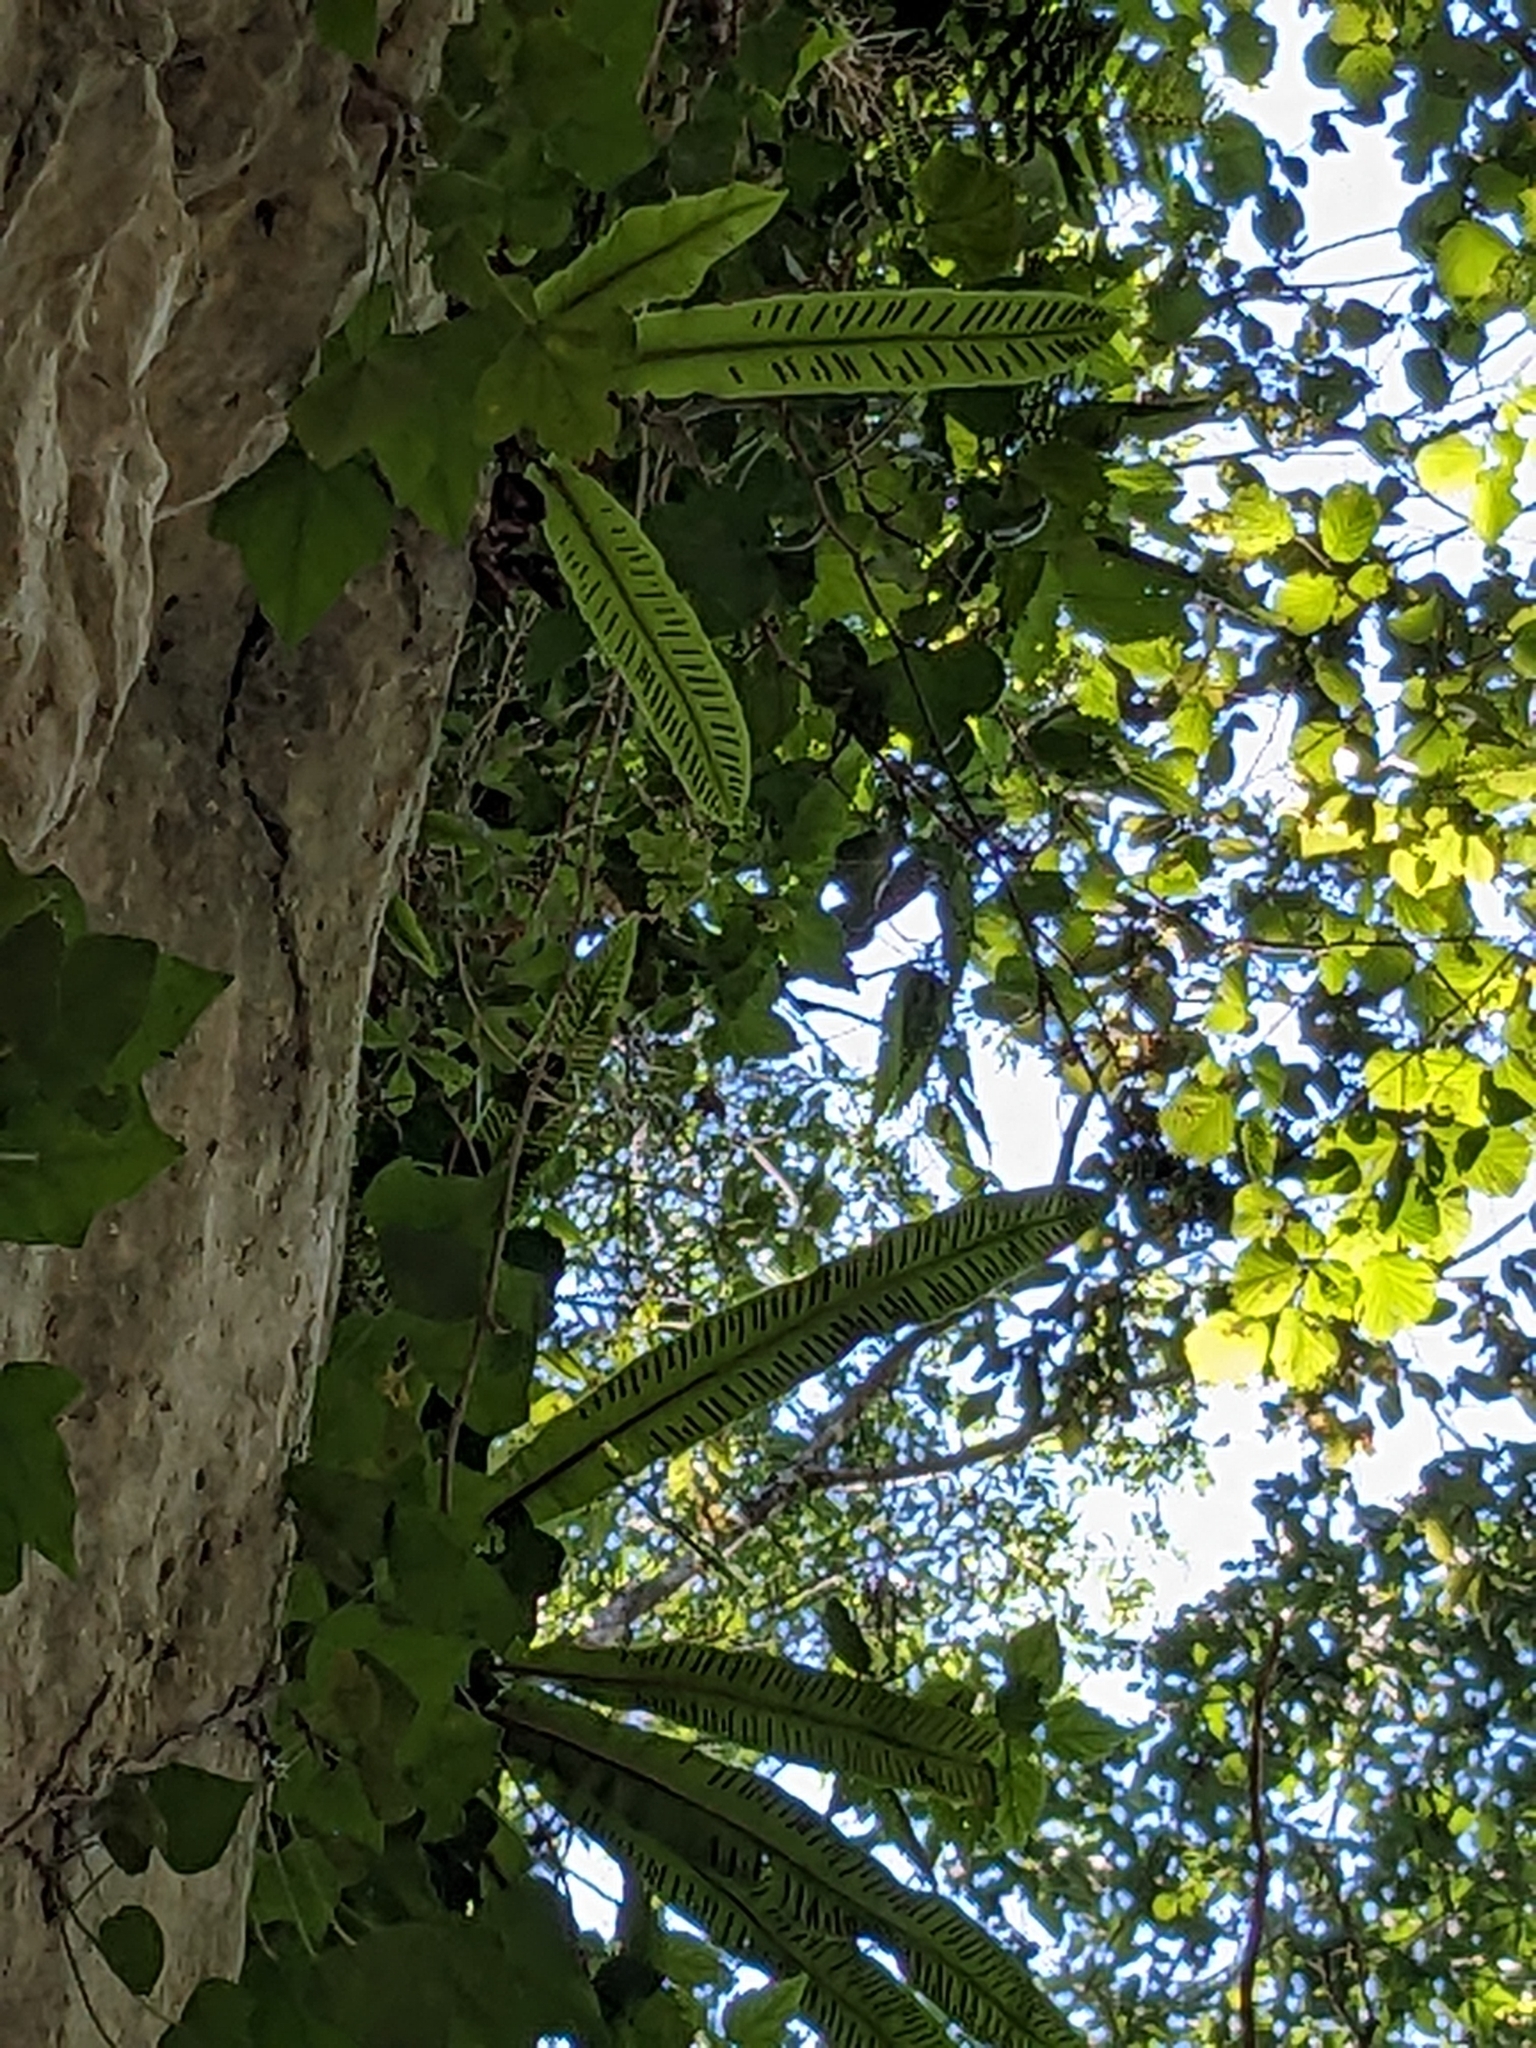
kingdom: Plantae
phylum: Tracheophyta
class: Polypodiopsida
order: Polypodiales
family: Aspleniaceae
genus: Asplenium
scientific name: Asplenium scolopendrium
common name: Hart's-tongue fern
